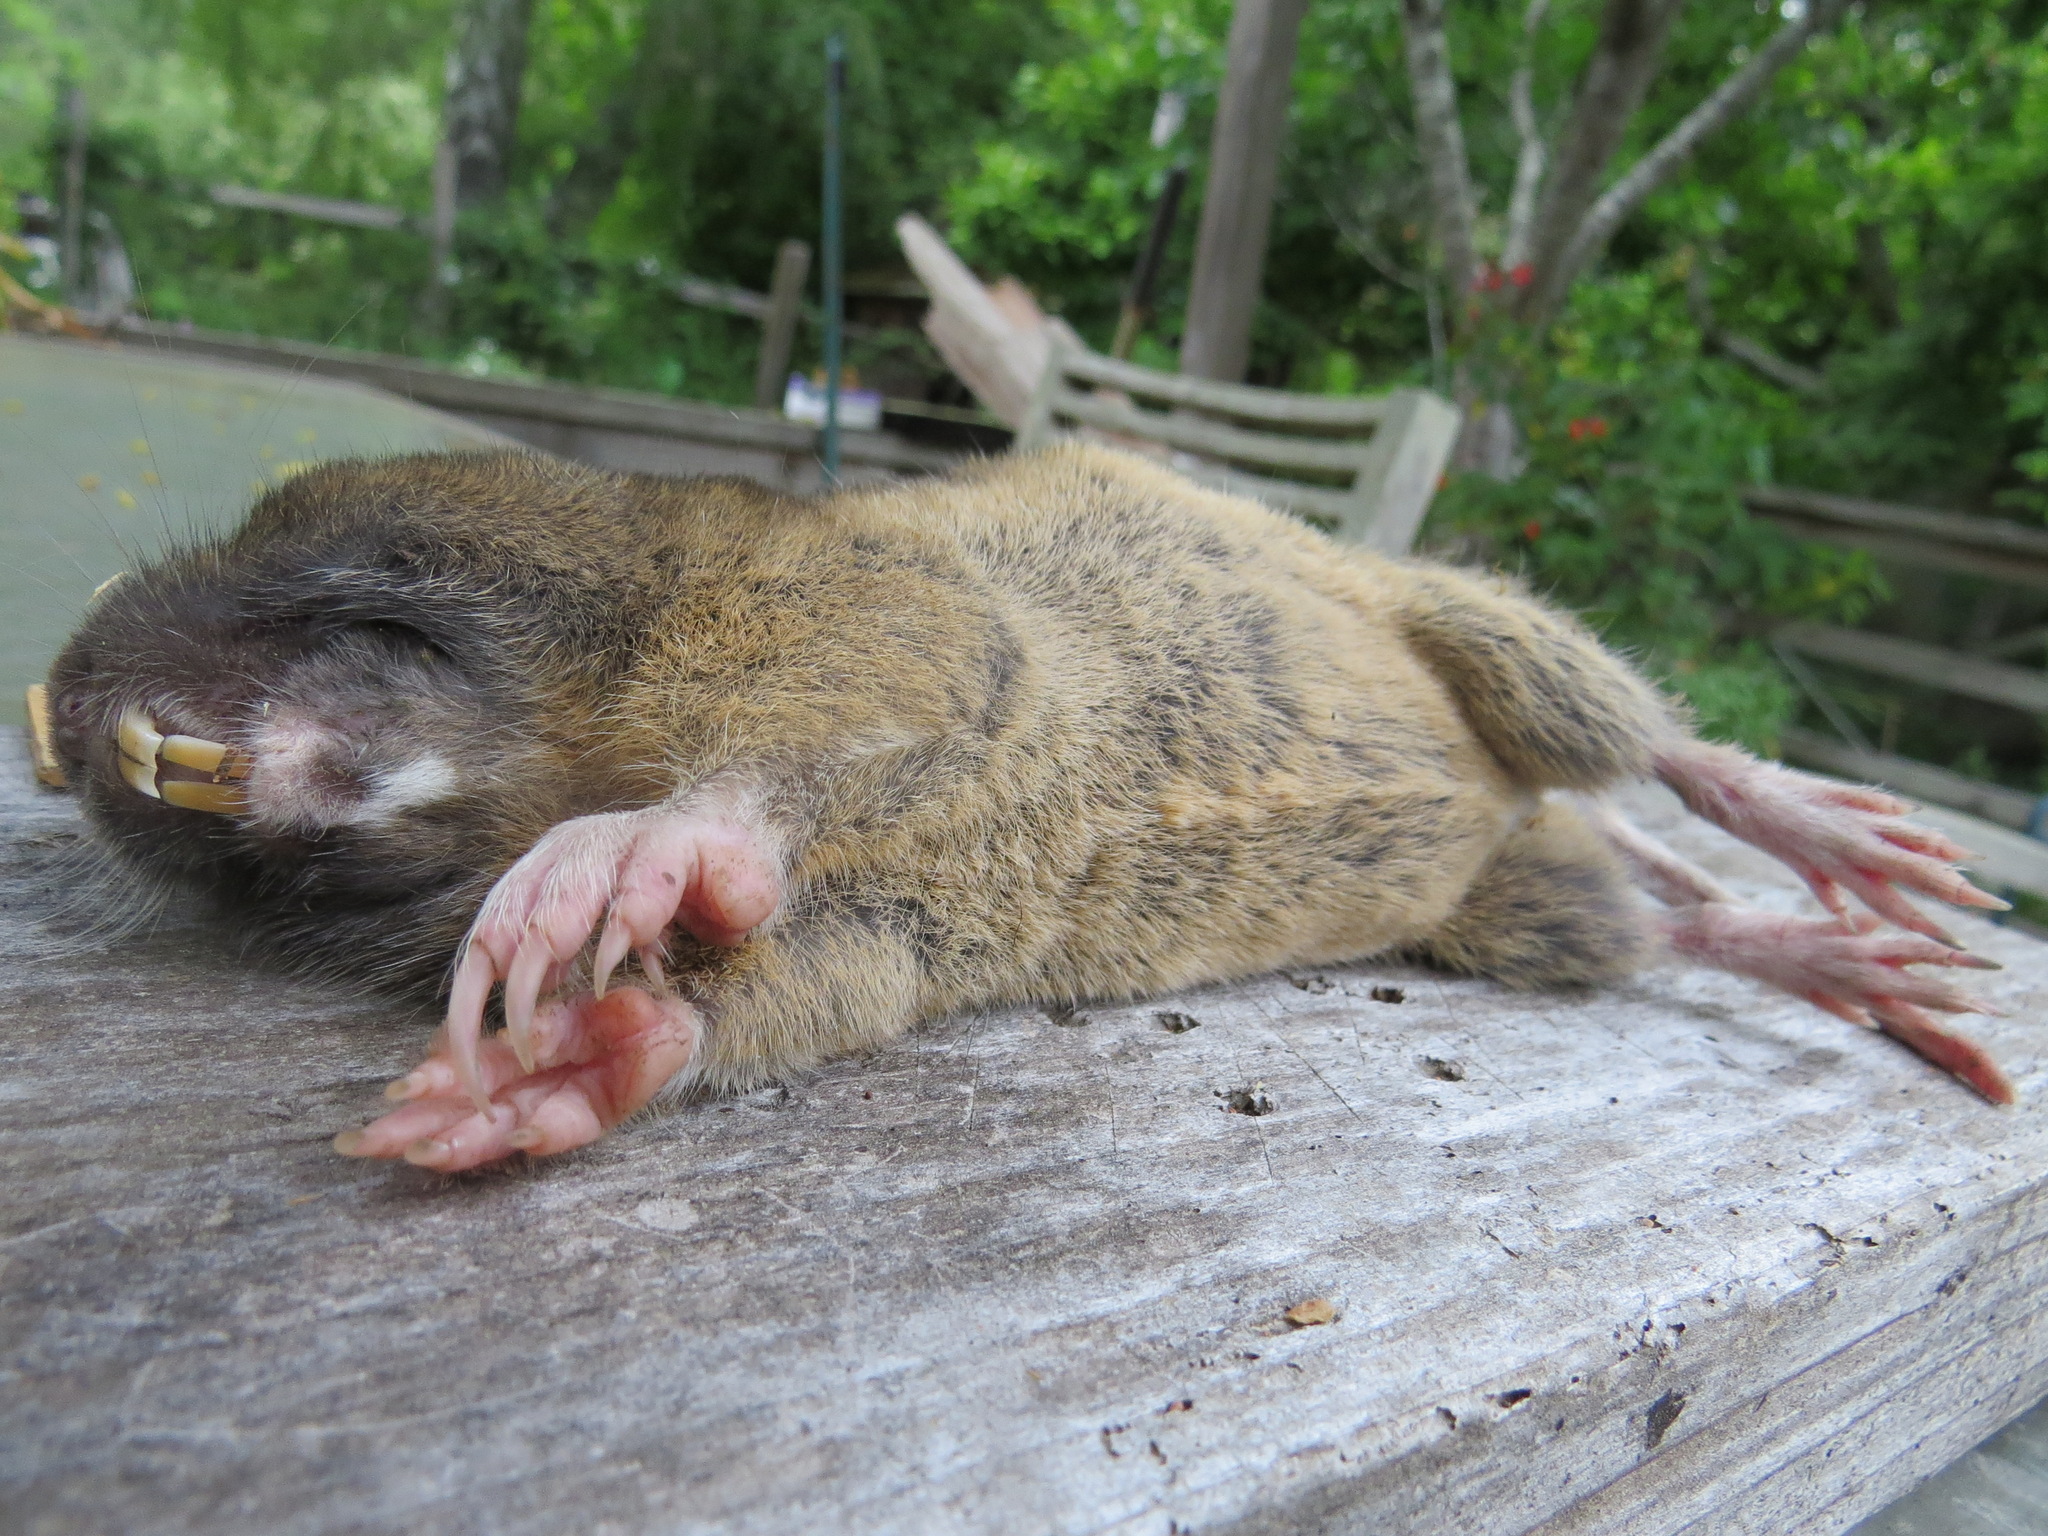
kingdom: Animalia
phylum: Chordata
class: Mammalia
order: Rodentia
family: Geomyidae
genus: Thomomys
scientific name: Thomomys bottae
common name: Botta's pocket gopher
